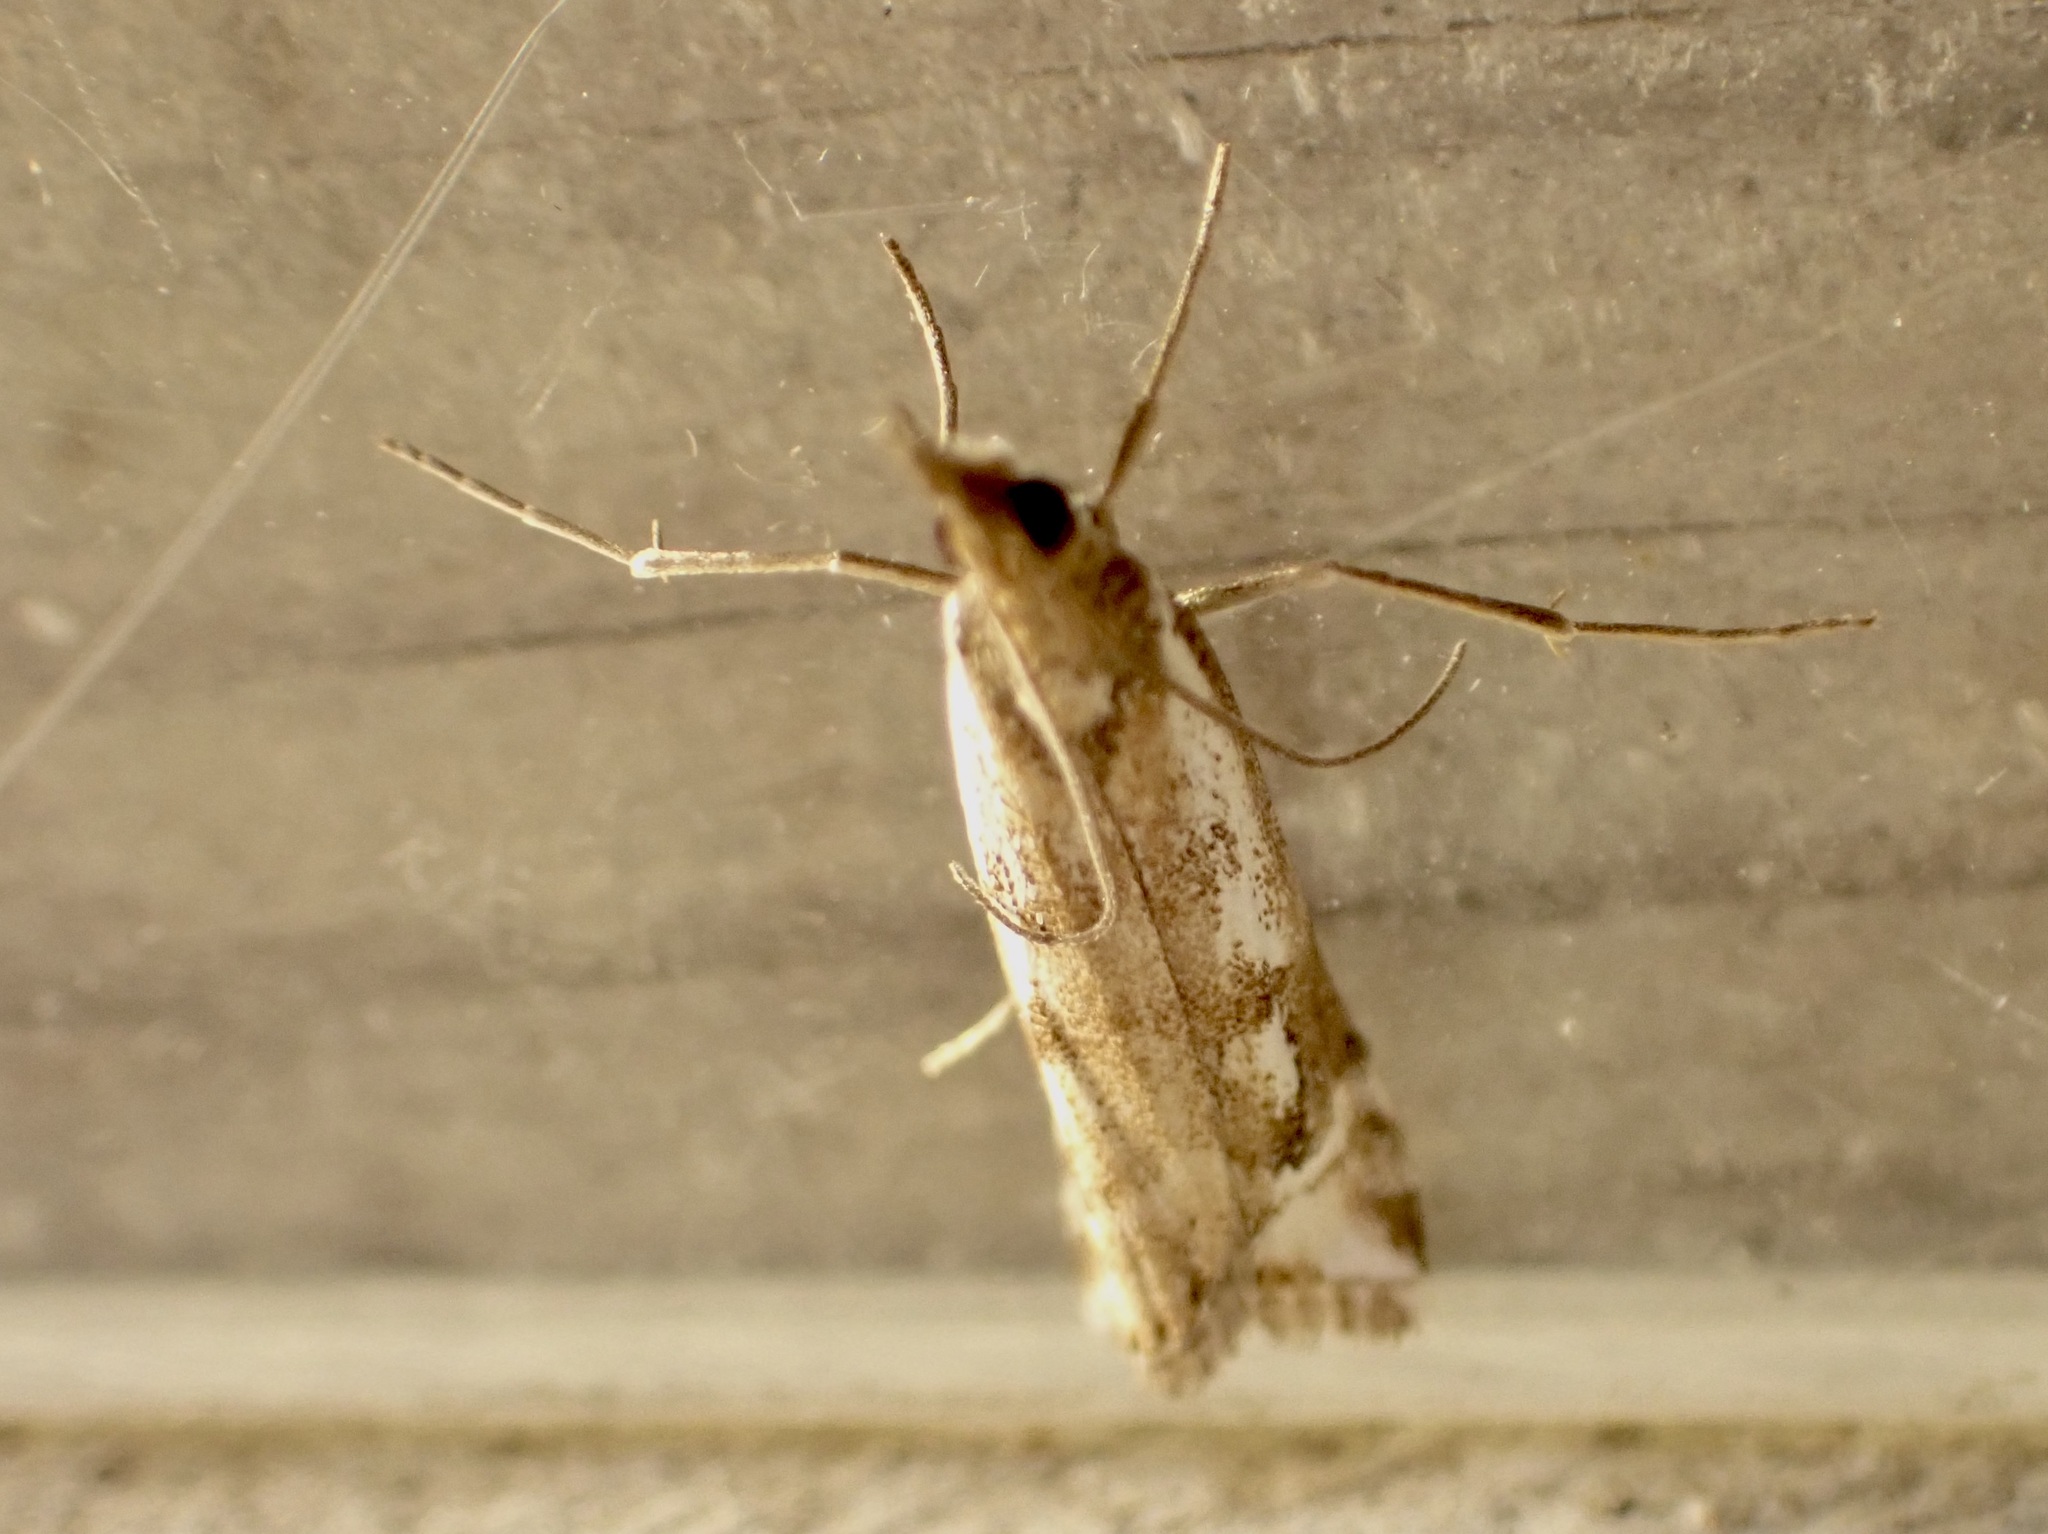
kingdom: Animalia
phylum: Arthropoda
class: Insecta
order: Lepidoptera
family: Crambidae
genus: Orocrambus
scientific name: Orocrambus vulgaris
